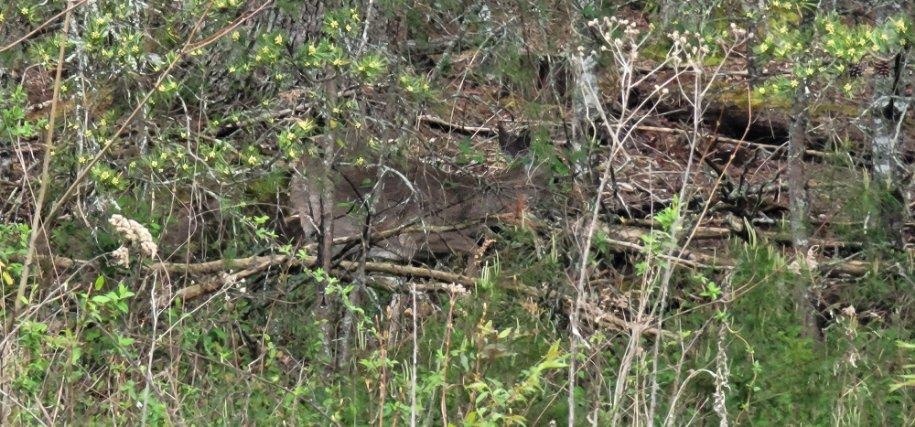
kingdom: Animalia
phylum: Chordata
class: Mammalia
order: Artiodactyla
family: Cervidae
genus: Odocoileus
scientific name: Odocoileus virginianus
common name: White-tailed deer
